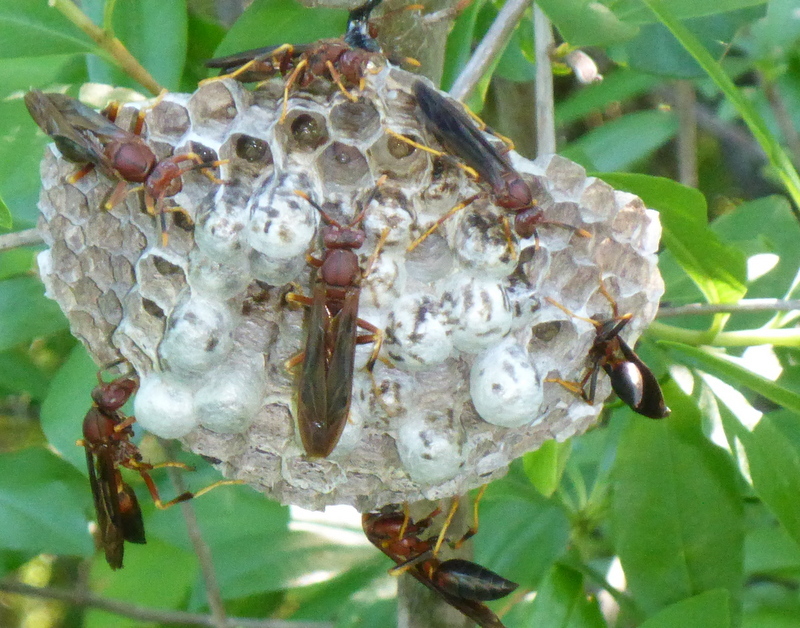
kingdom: Animalia
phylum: Arthropoda
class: Insecta
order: Hymenoptera
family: Eumenidae
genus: Polistes
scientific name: Polistes annularis
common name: Ringed paper wasp
